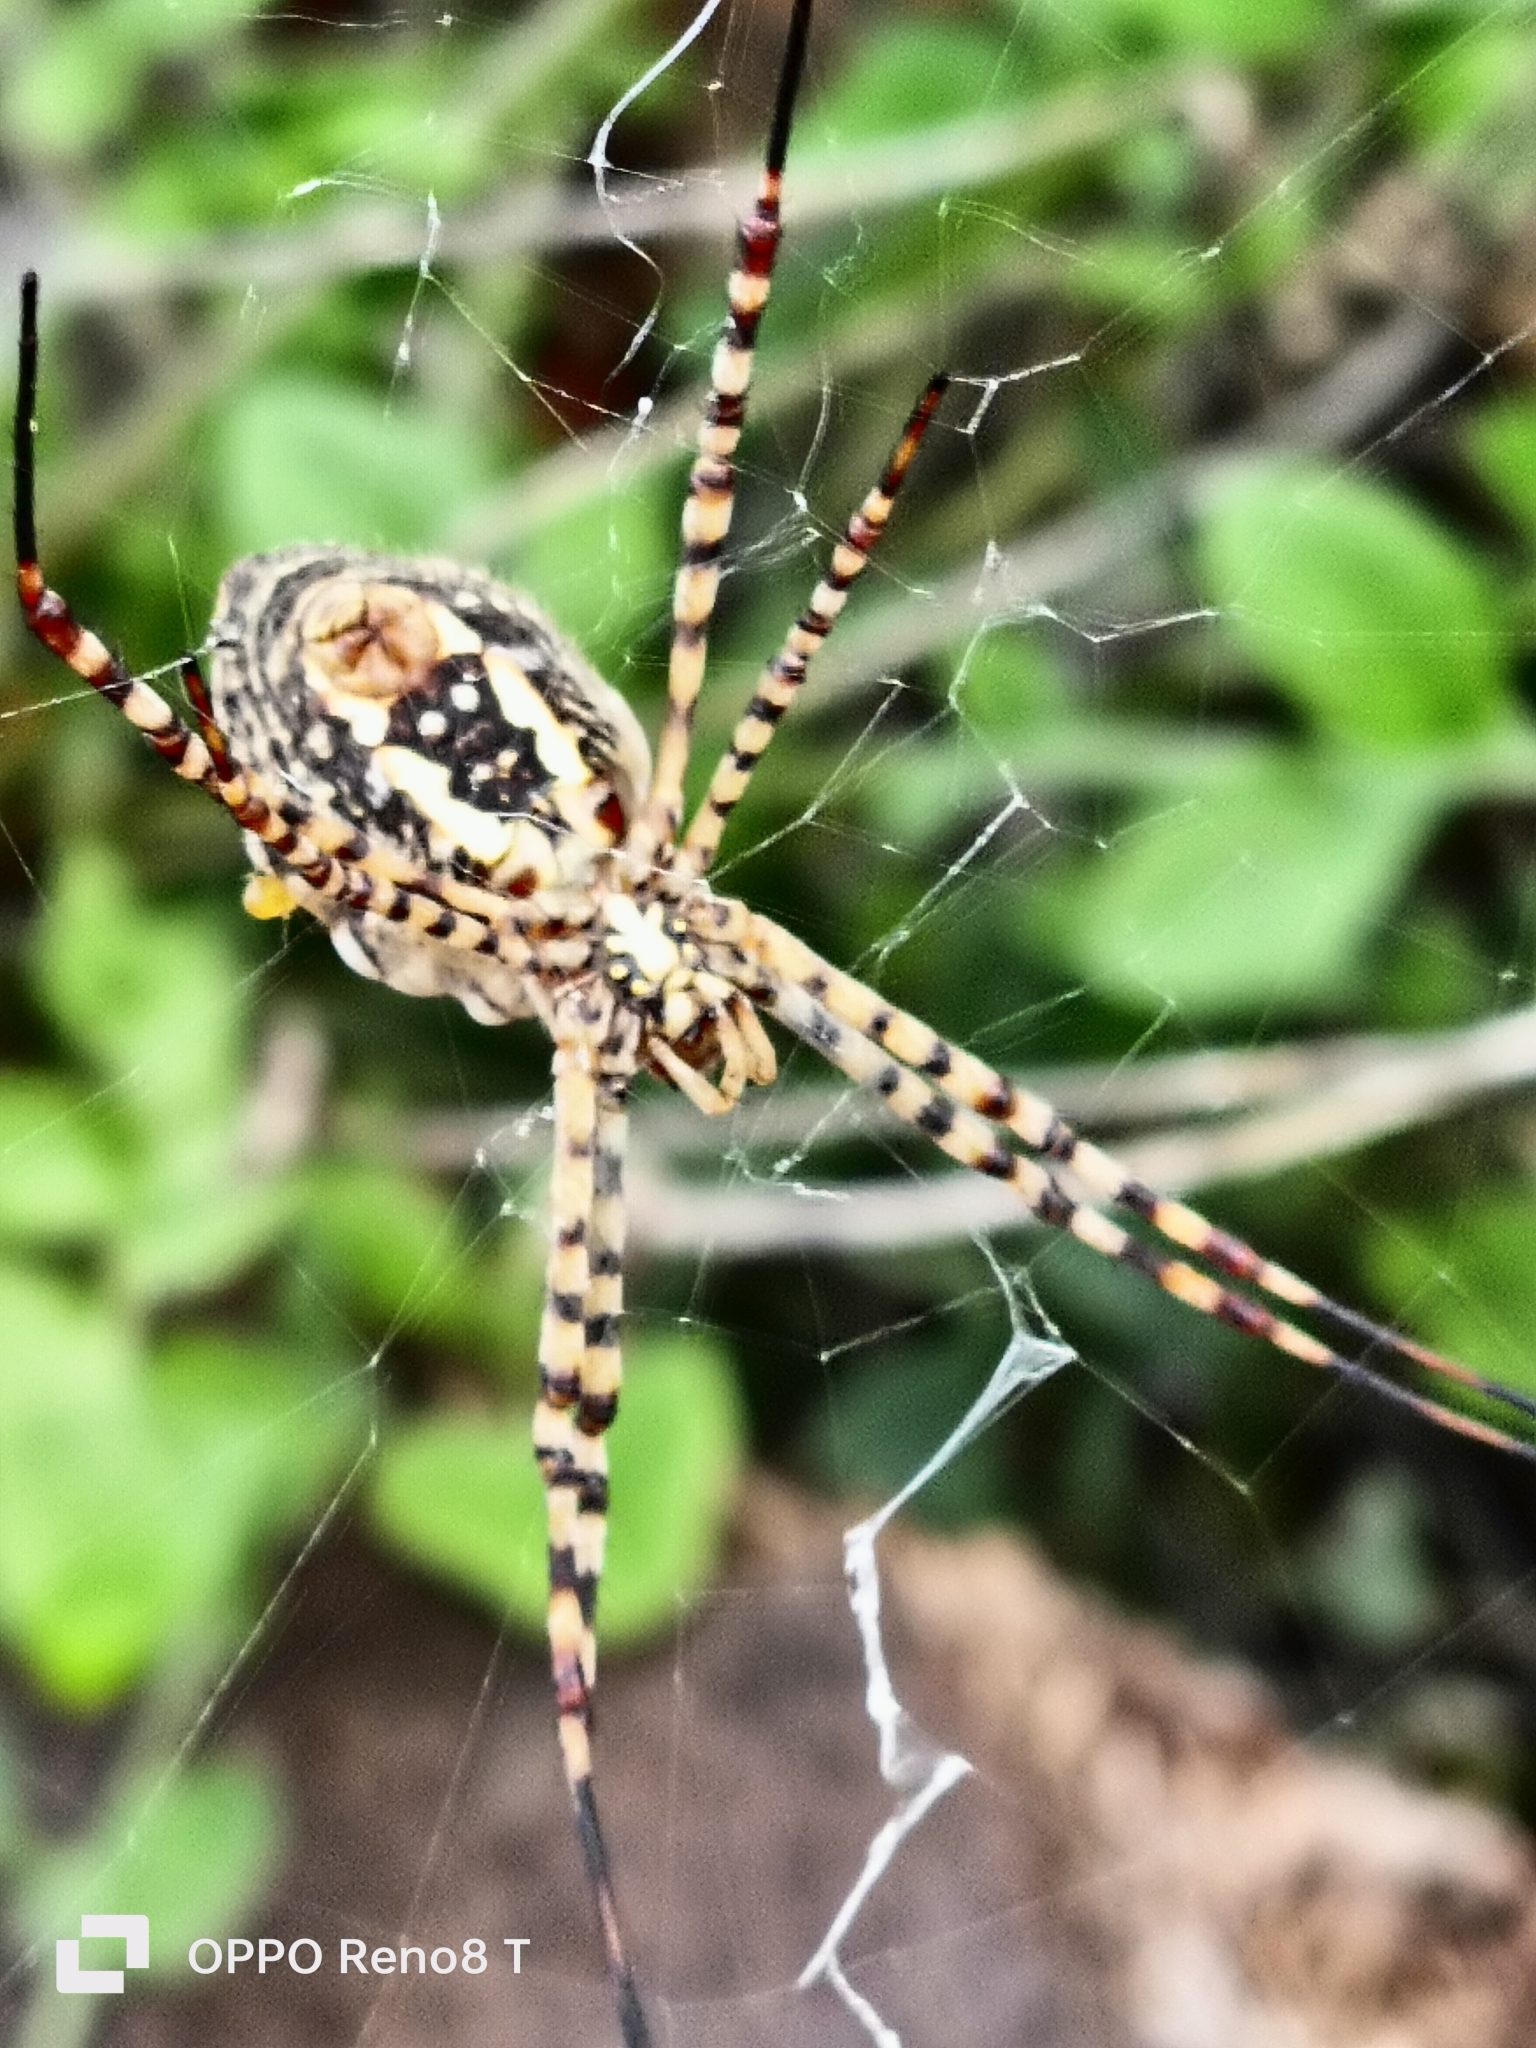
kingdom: Animalia
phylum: Arthropoda
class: Arachnida
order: Araneae
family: Araneidae
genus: Argiope
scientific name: Argiope trifasciata
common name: Banded garden spider
